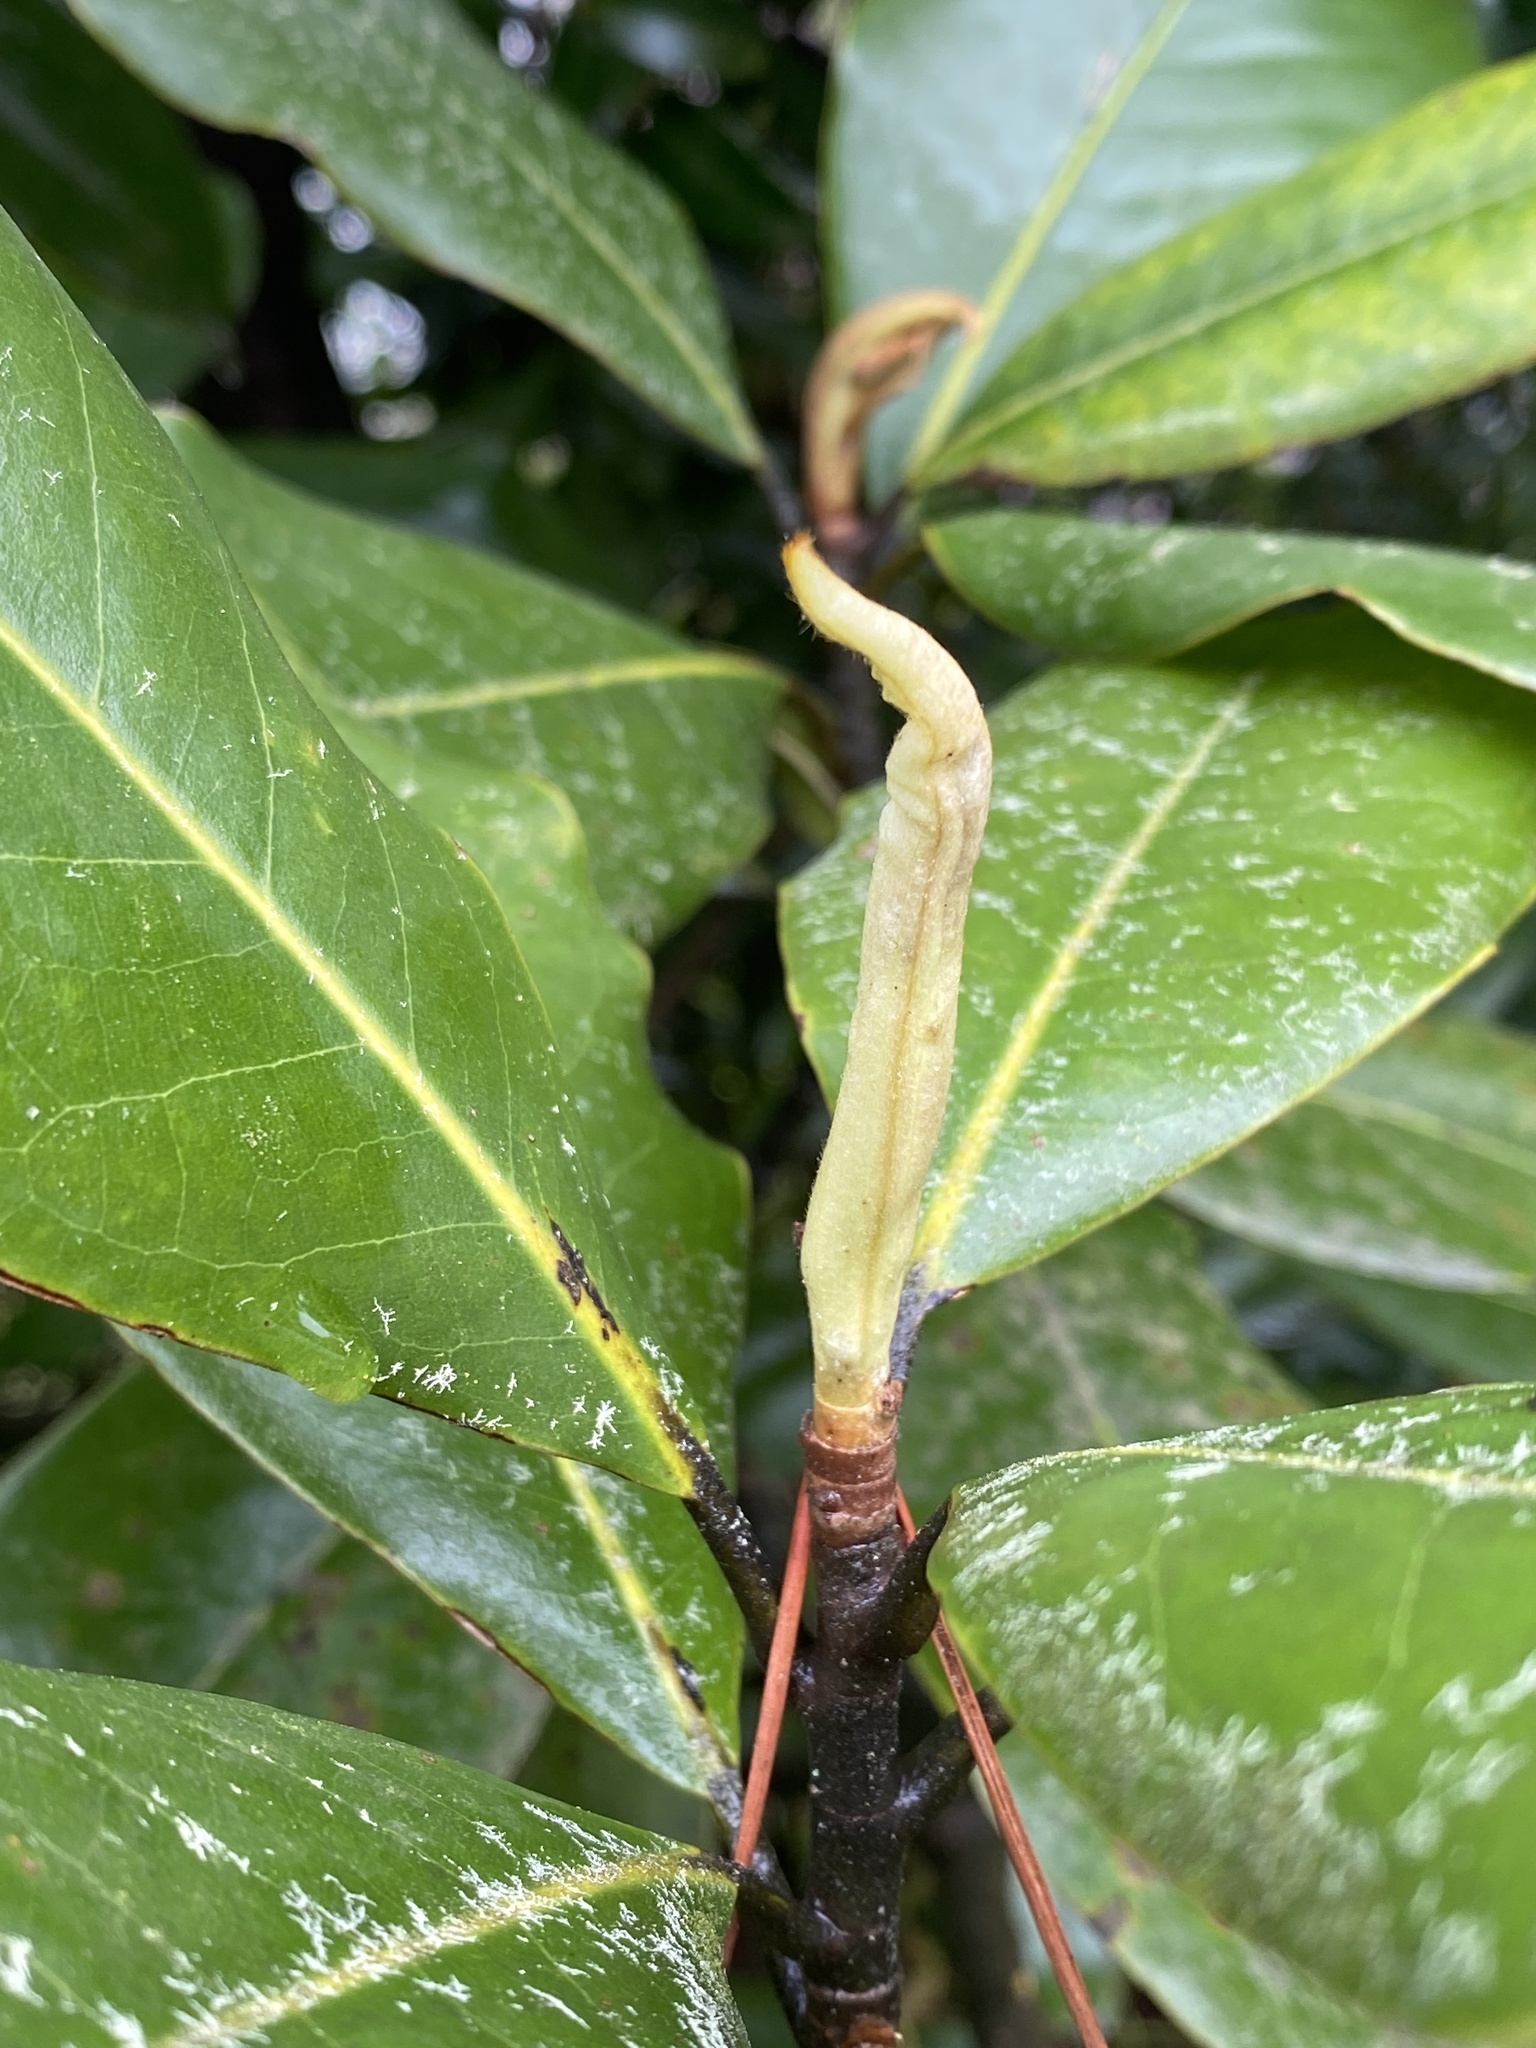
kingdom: Plantae
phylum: Tracheophyta
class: Magnoliopsida
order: Magnoliales
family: Magnoliaceae
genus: Magnolia
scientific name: Magnolia grandiflora
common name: Southern magnolia
